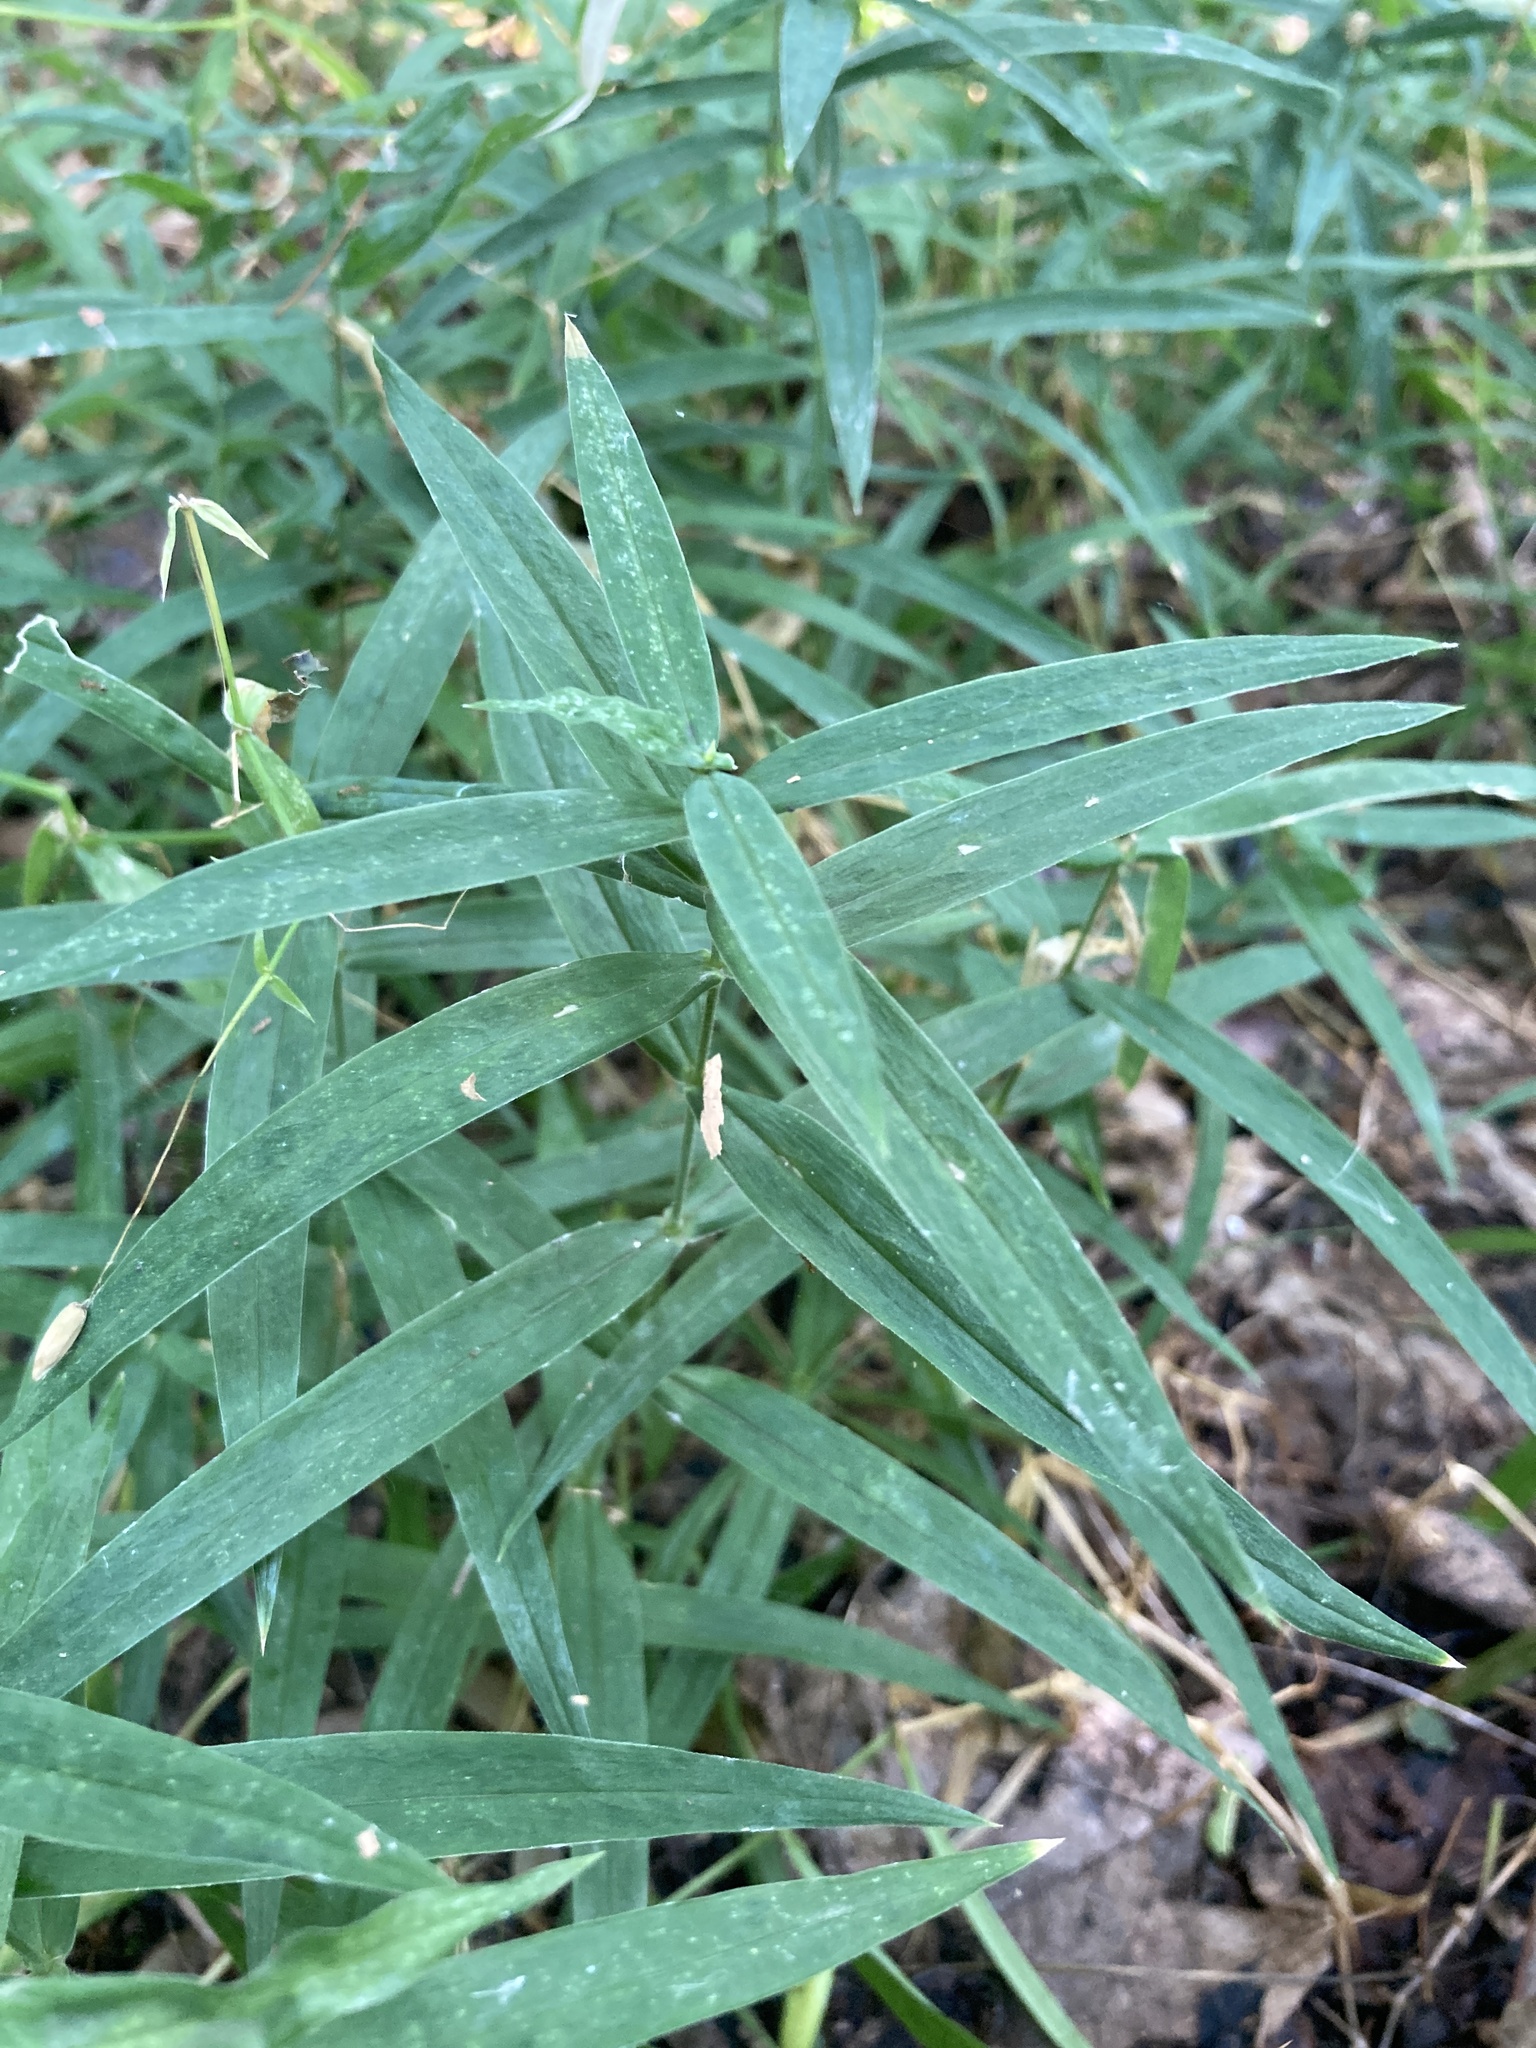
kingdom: Plantae
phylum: Tracheophyta
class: Magnoliopsida
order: Caryophyllales
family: Caryophyllaceae
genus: Rabelera
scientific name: Rabelera holostea
